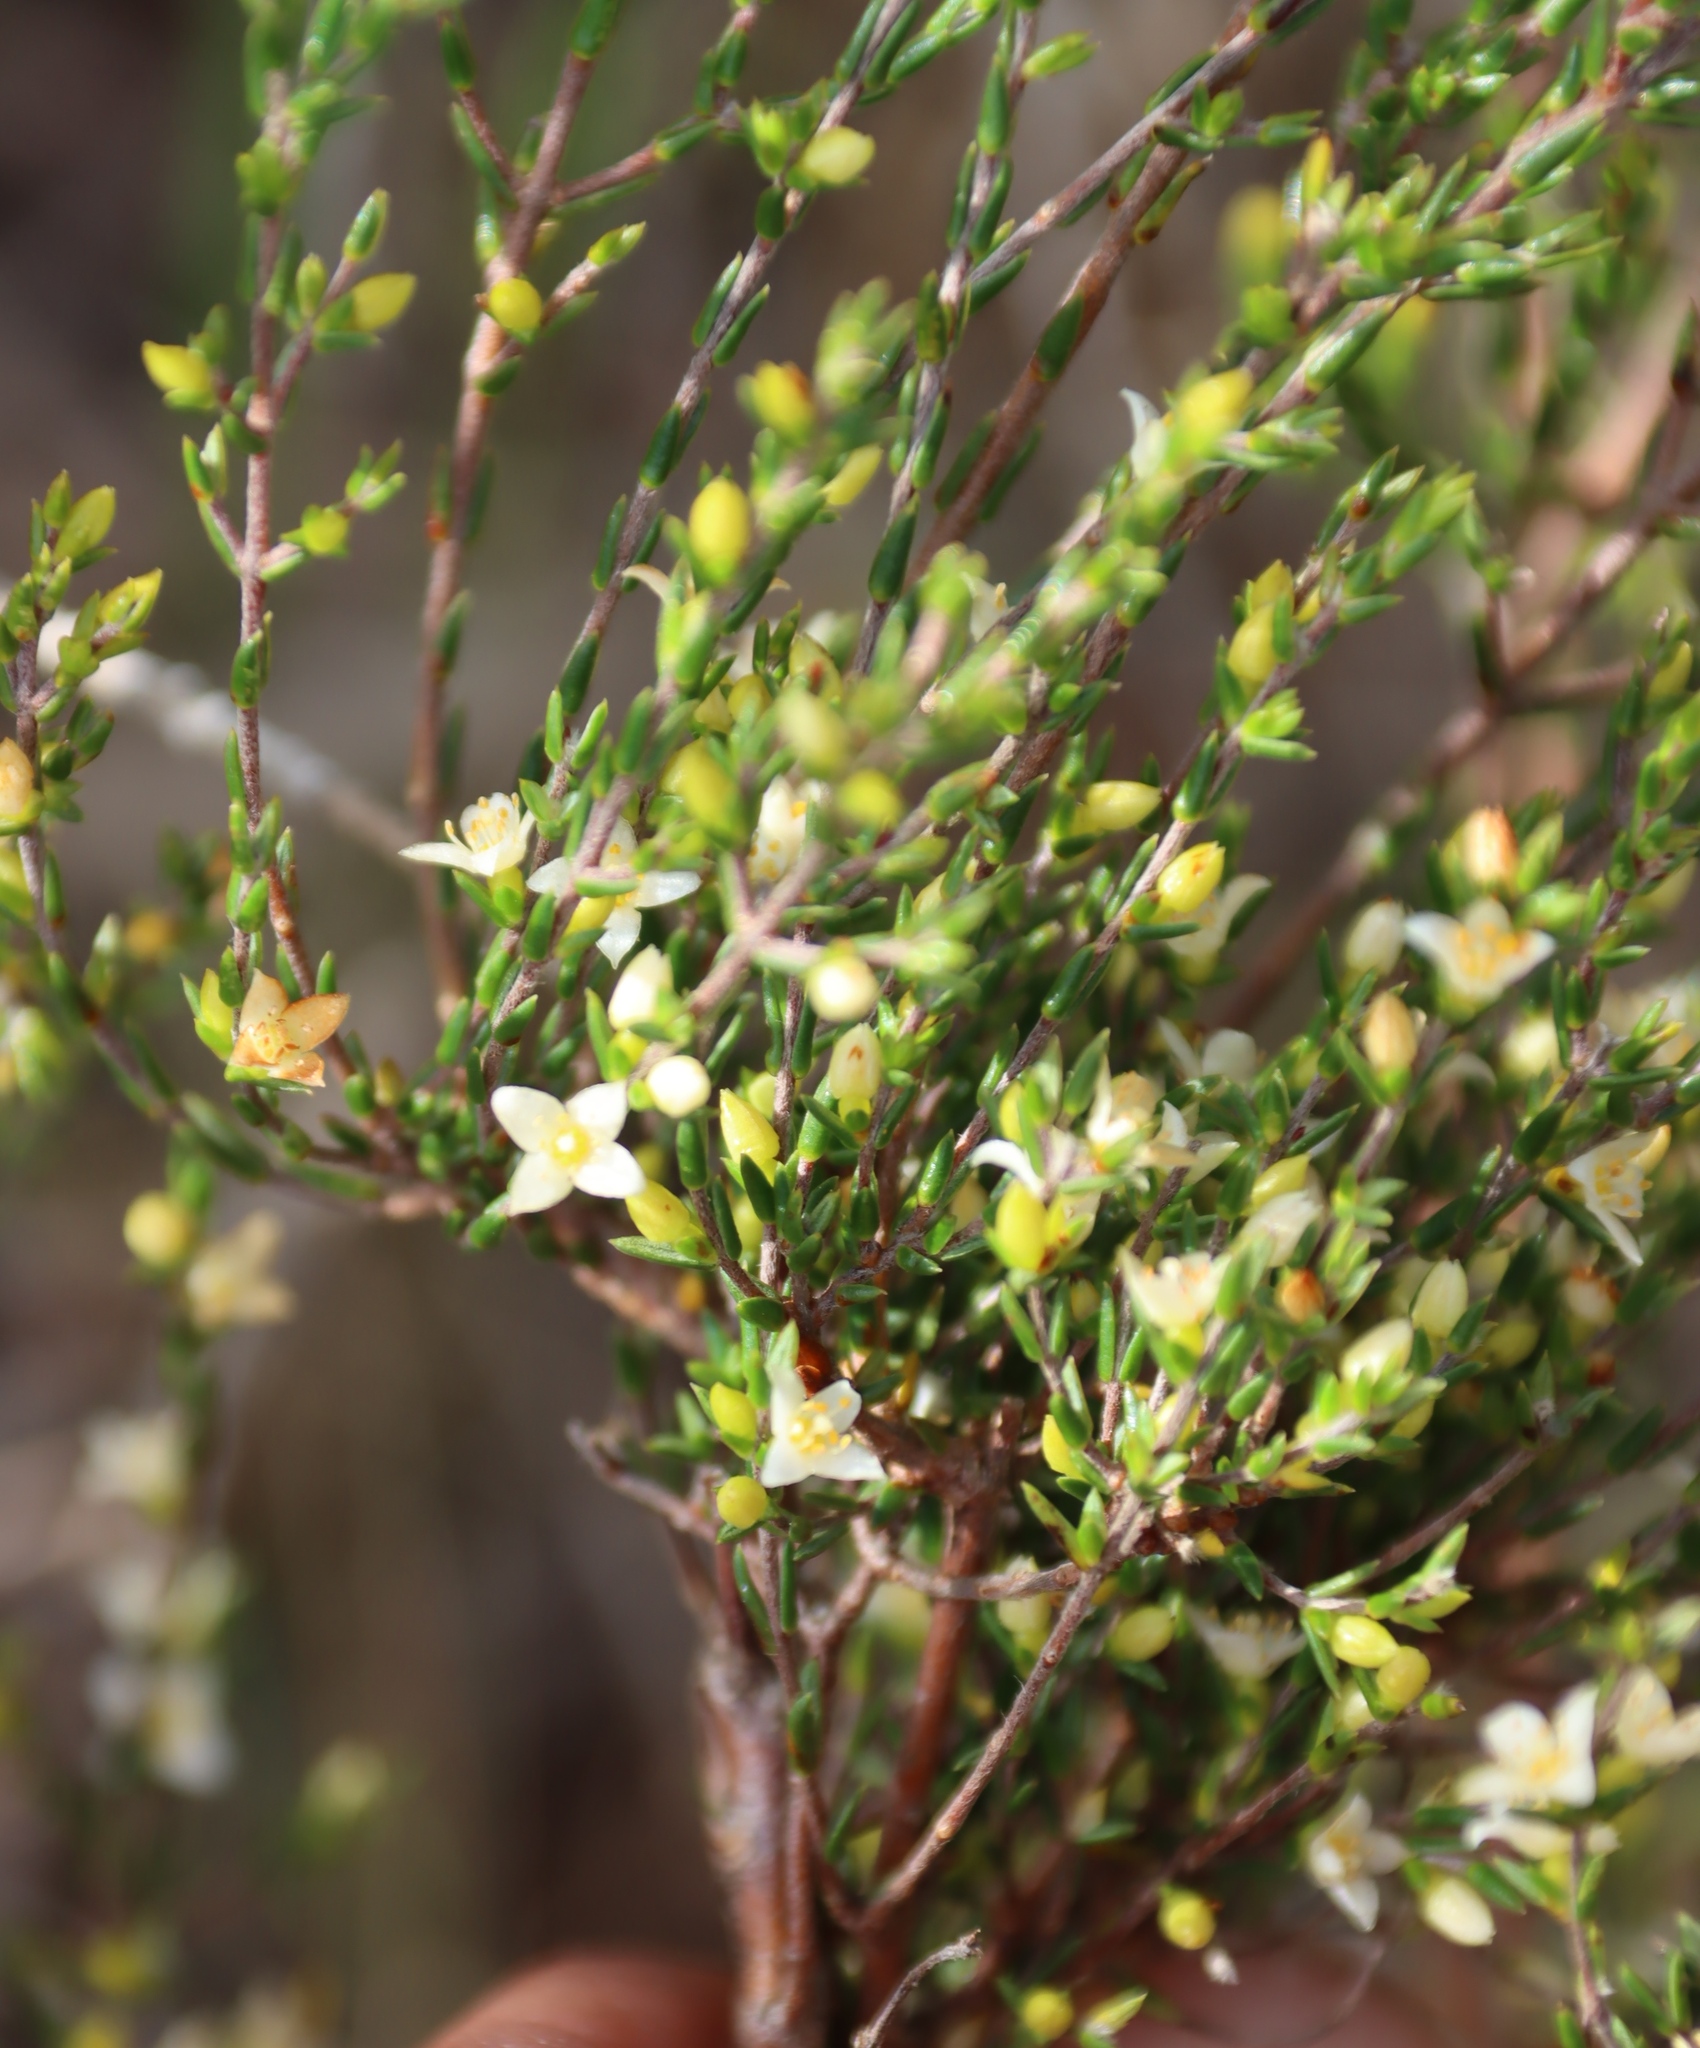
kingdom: Plantae
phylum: Tracheophyta
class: Magnoliopsida
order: Malvales
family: Thymelaeaceae
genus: Lachnaea
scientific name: Lachnaea axillaris
